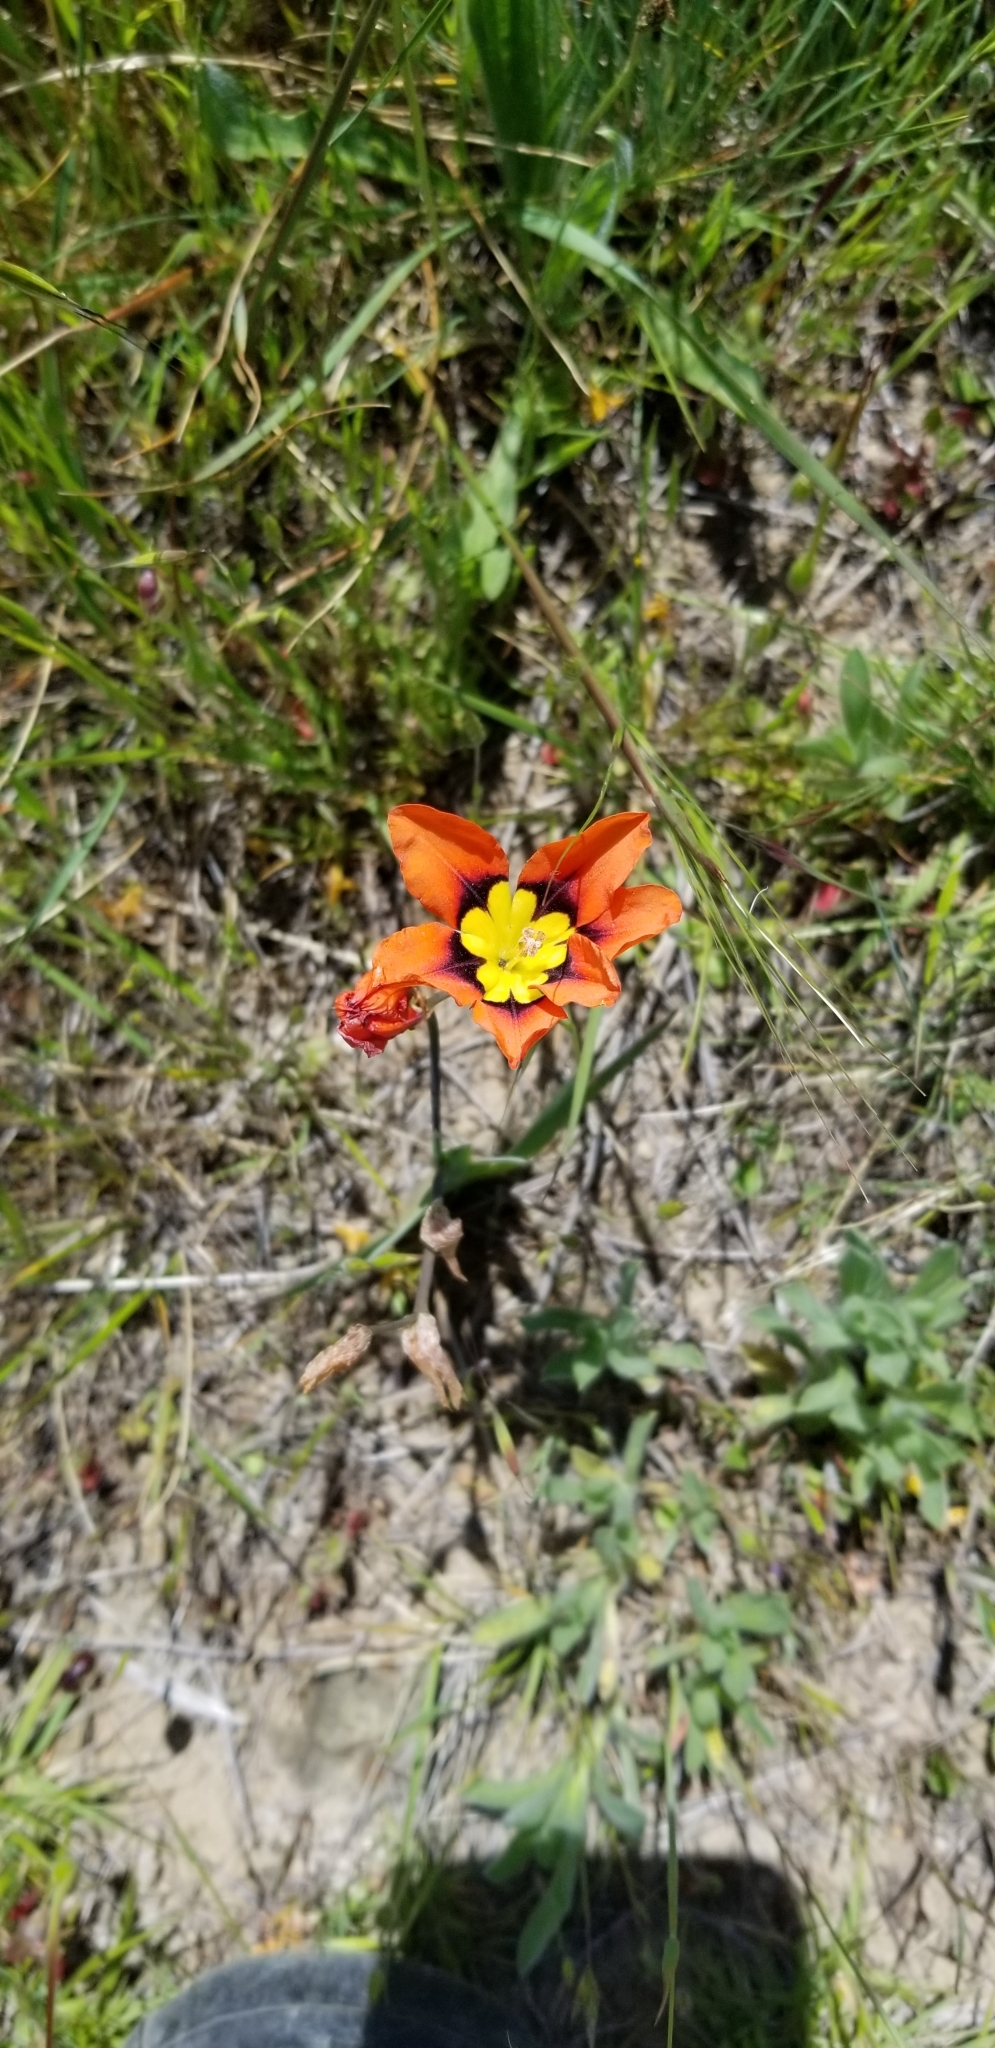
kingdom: Plantae
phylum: Tracheophyta
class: Liliopsida
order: Asparagales
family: Iridaceae
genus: Sparaxis
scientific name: Sparaxis tricolor
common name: Wandflower
